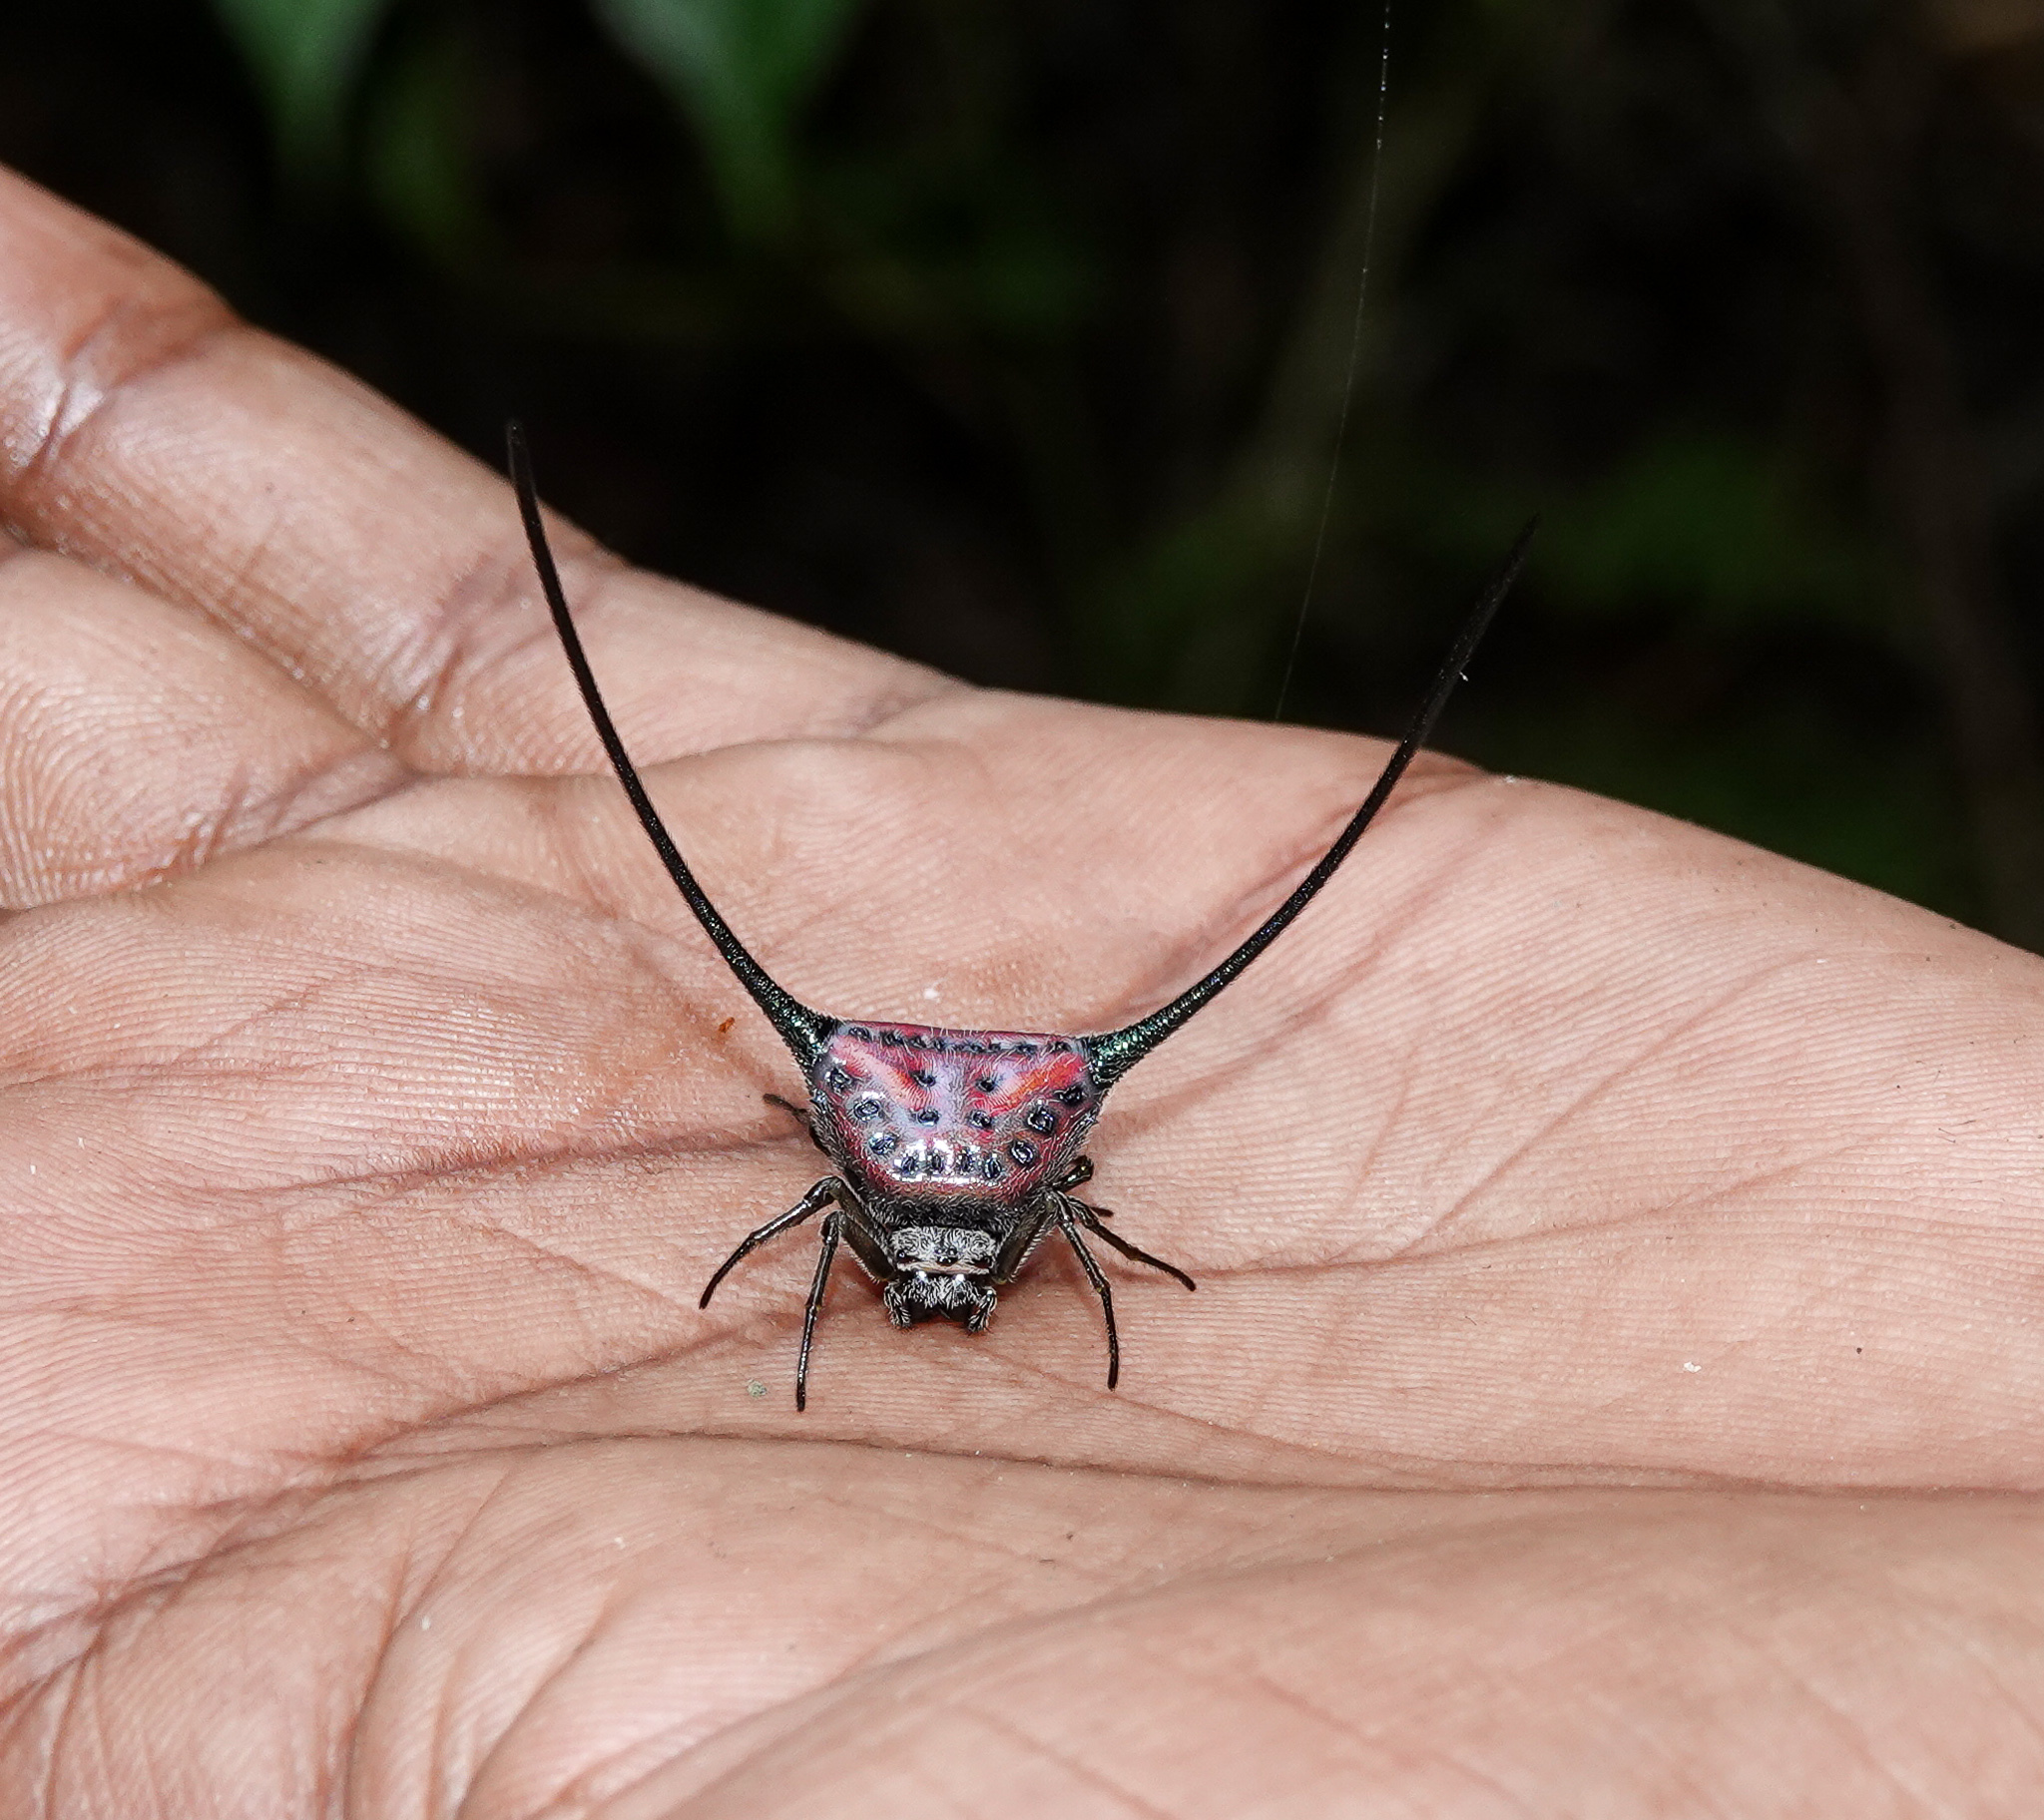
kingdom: Animalia
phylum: Arthropoda
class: Arachnida
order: Araneae
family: Araneidae
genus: Macracantha
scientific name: Macracantha arcuata
